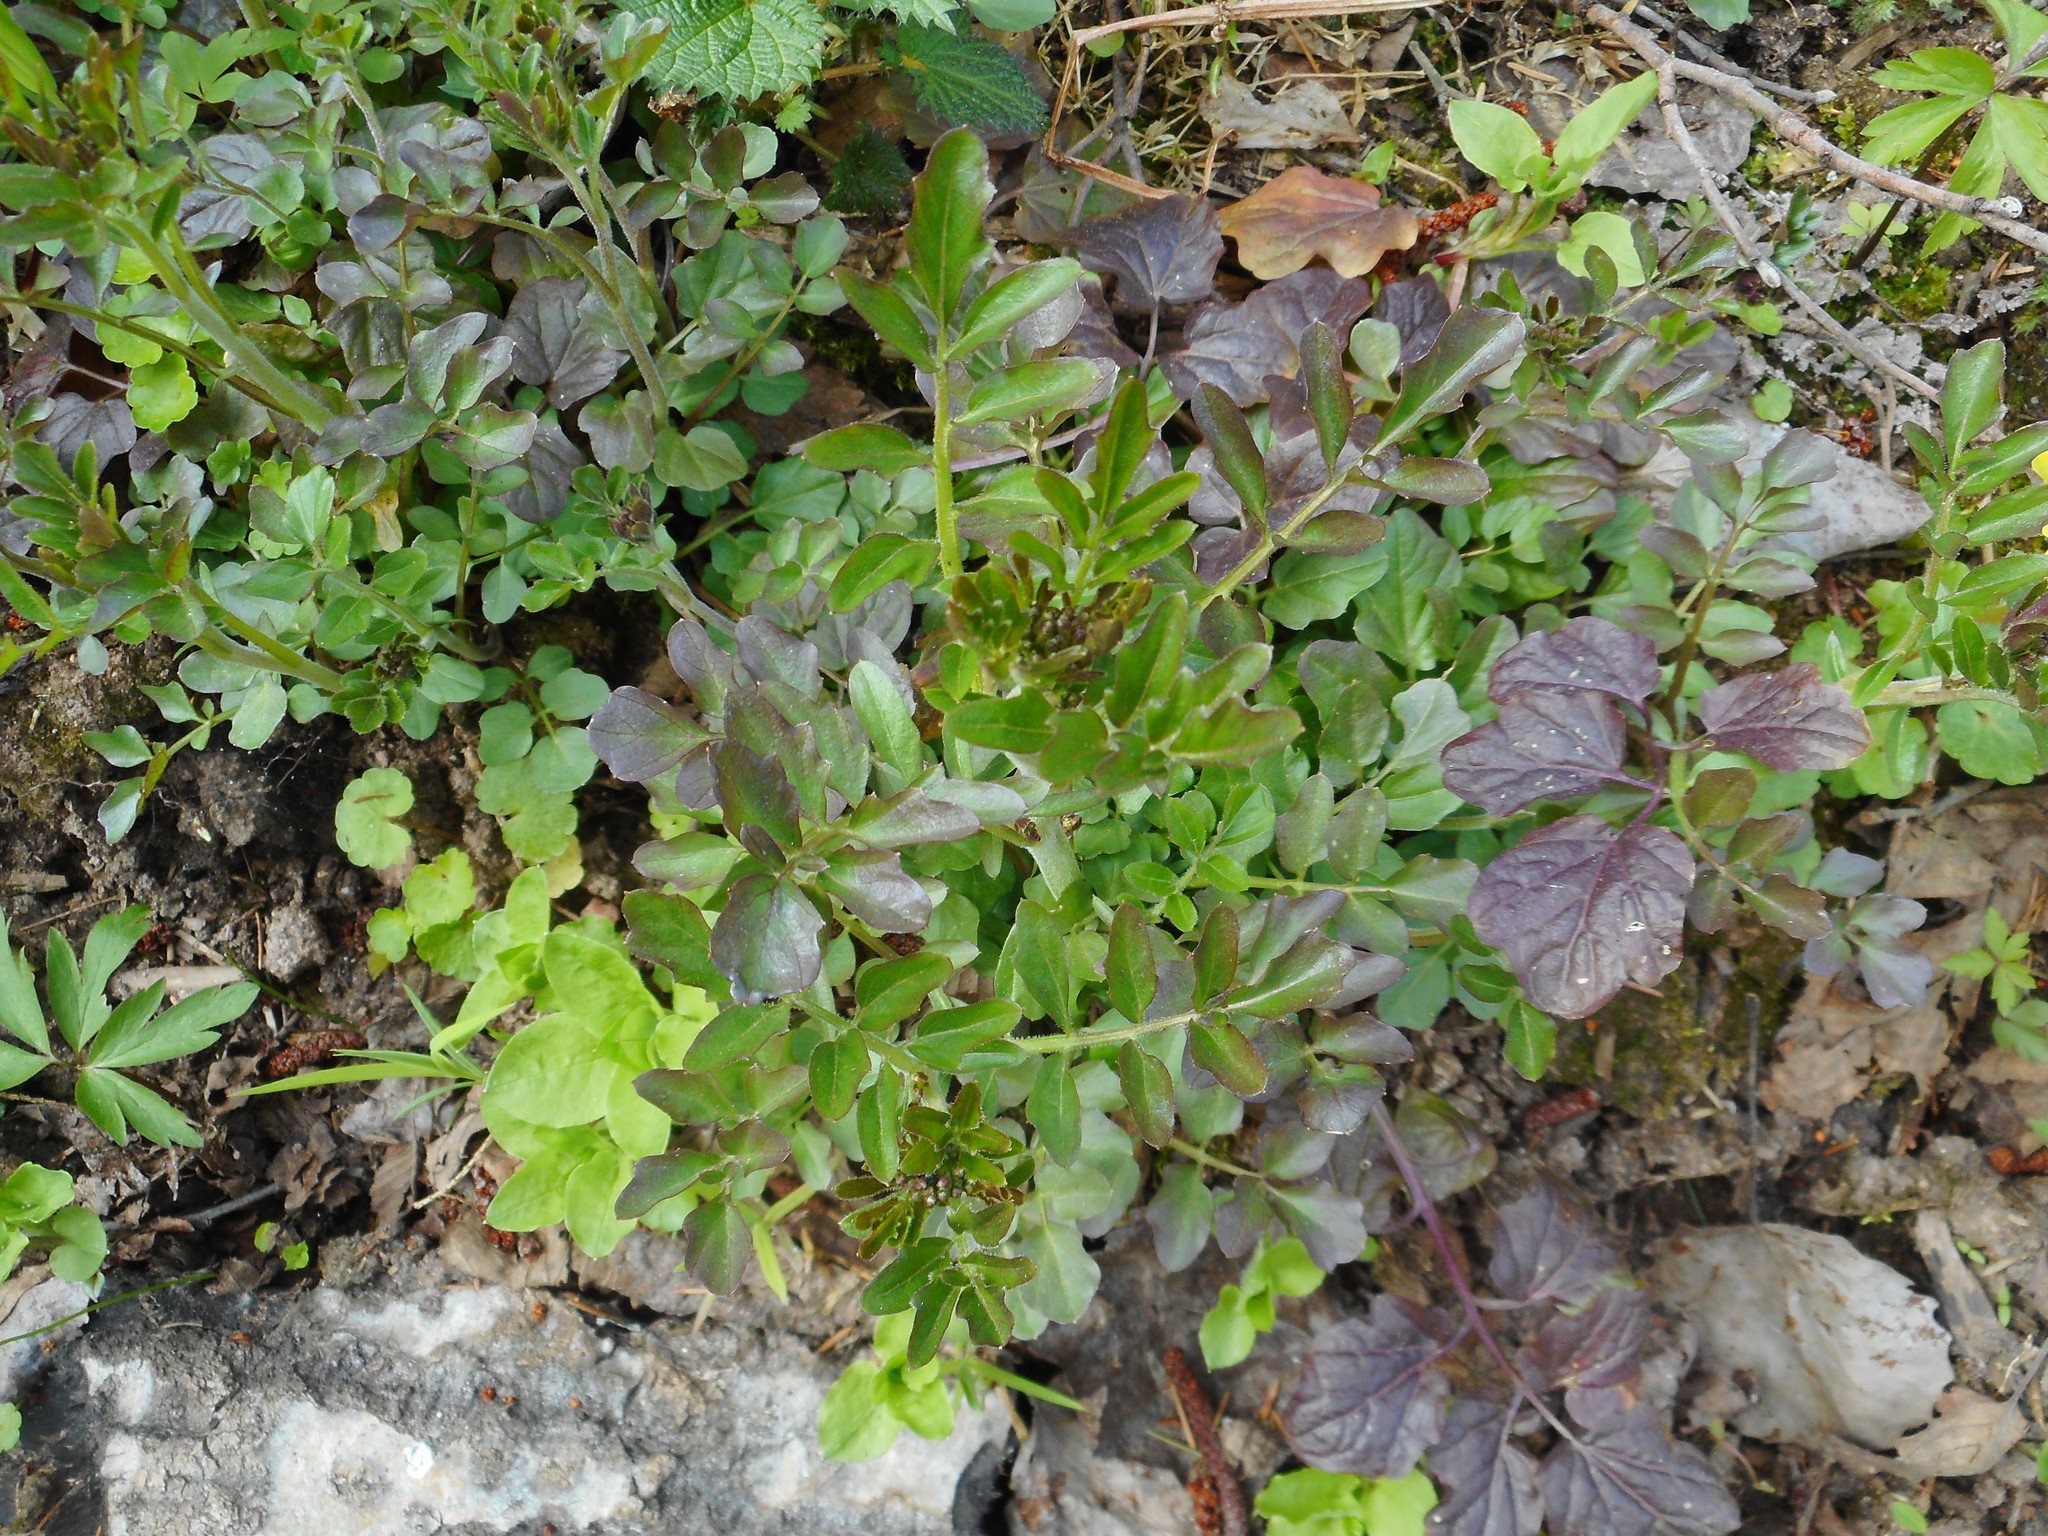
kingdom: Plantae
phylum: Tracheophyta
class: Magnoliopsida
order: Brassicales
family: Brassicaceae
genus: Cardamine
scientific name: Cardamine amara
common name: Large bitter-cress
